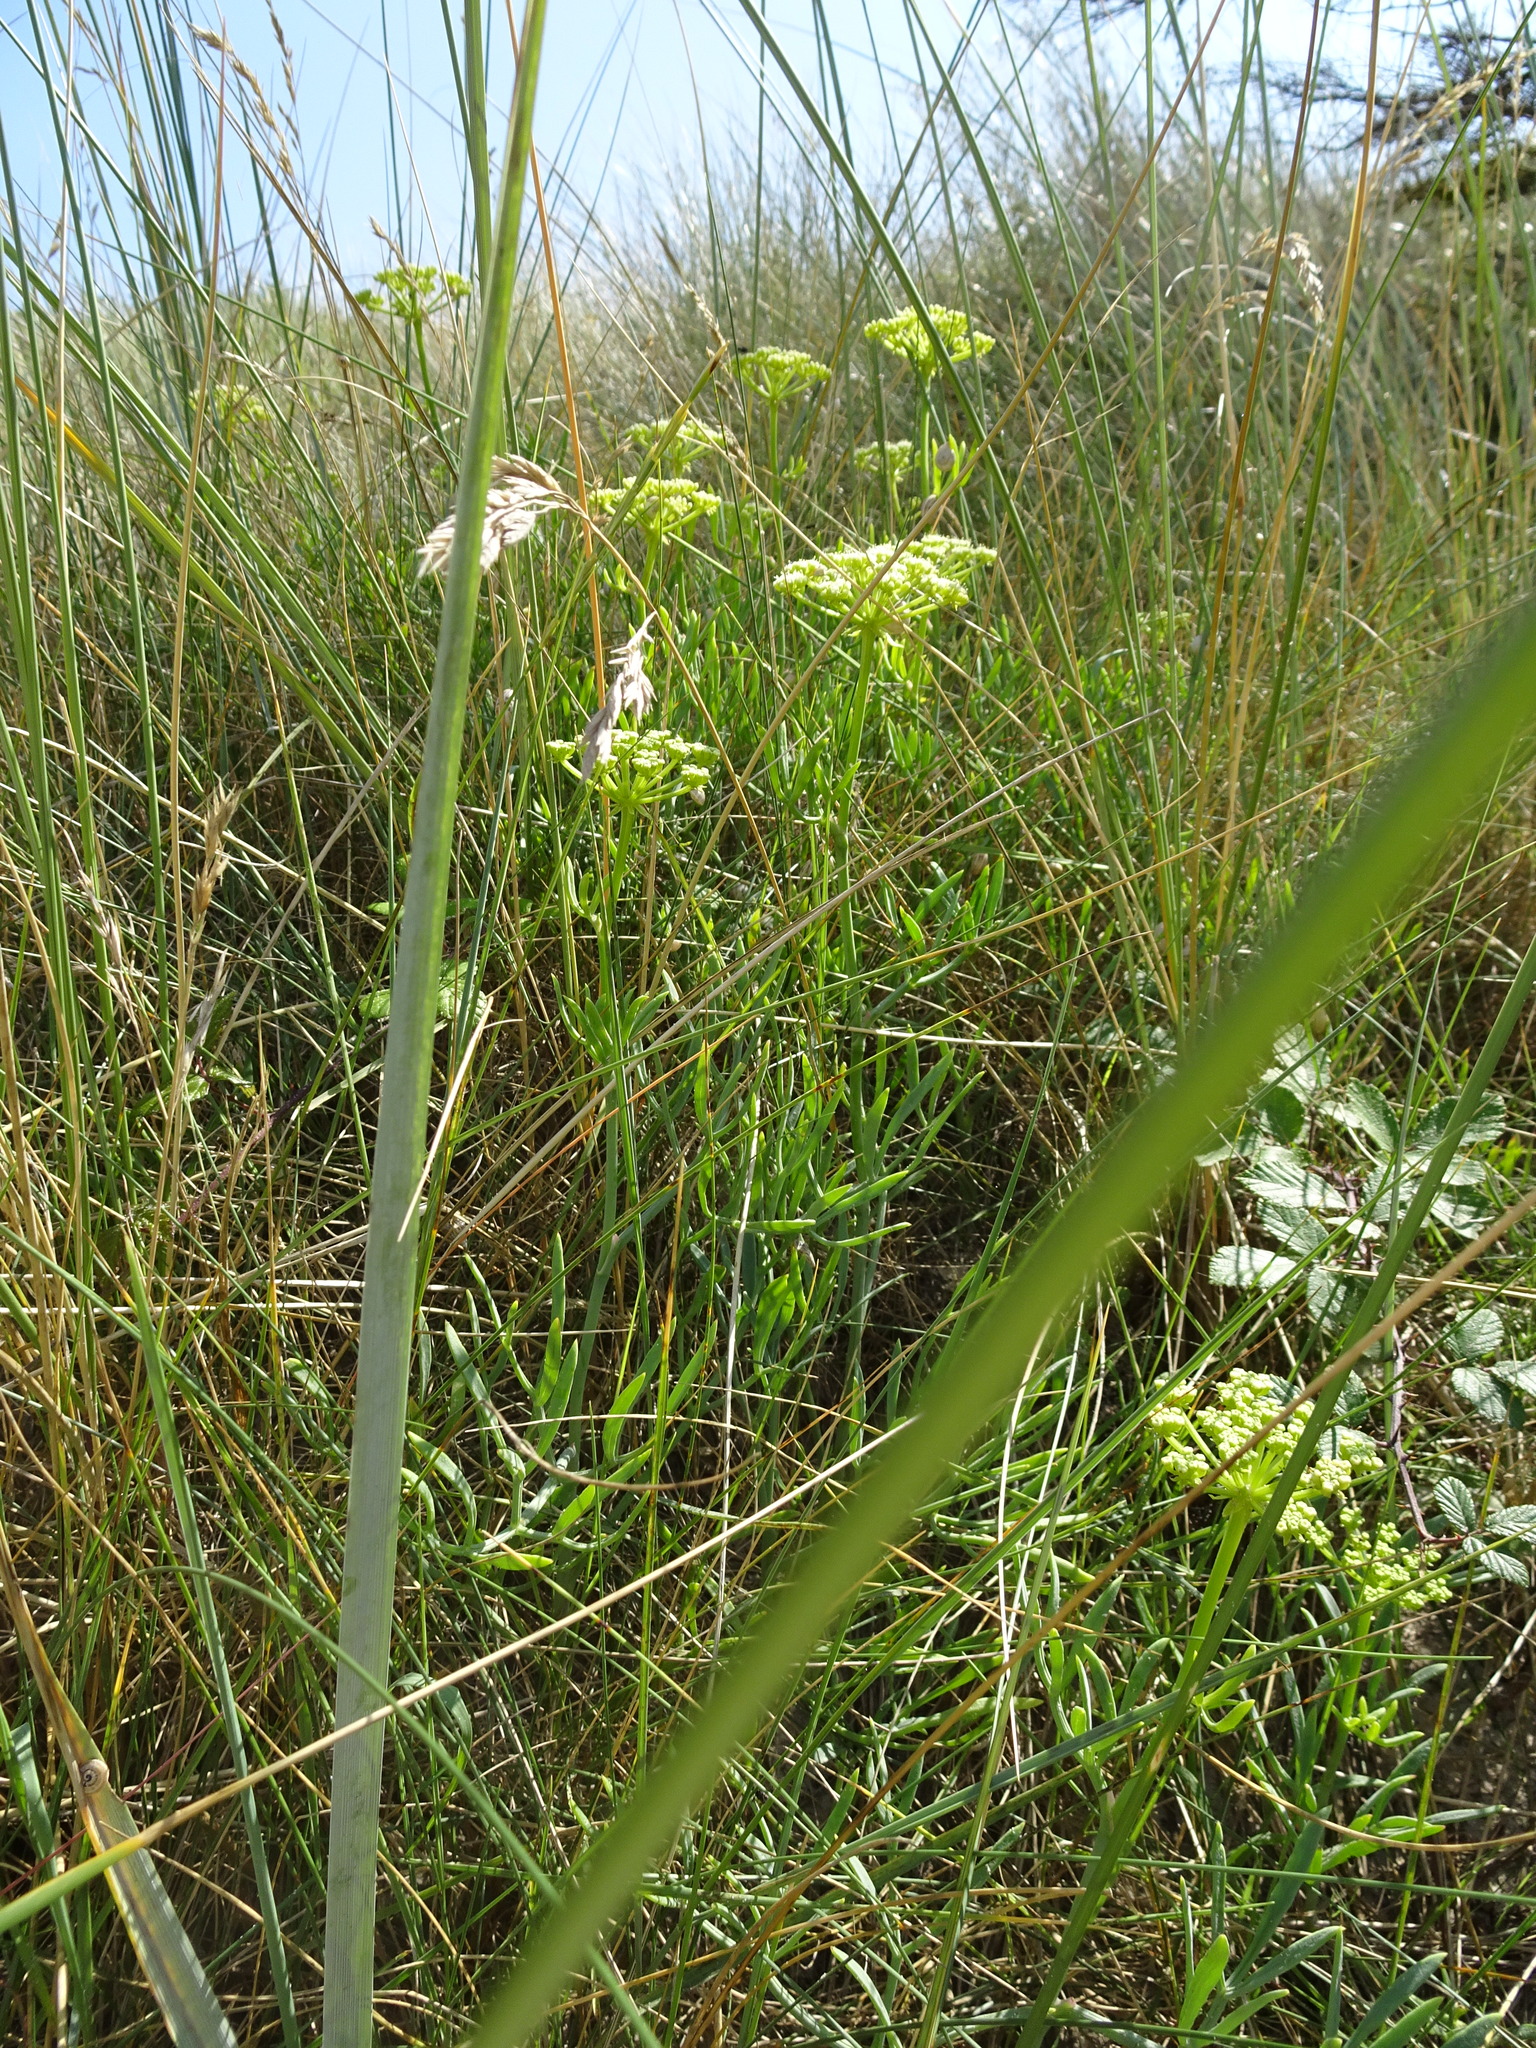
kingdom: Plantae
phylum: Tracheophyta
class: Magnoliopsida
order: Apiales
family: Apiaceae
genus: Crithmum
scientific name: Crithmum maritimum
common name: Rock samphire
